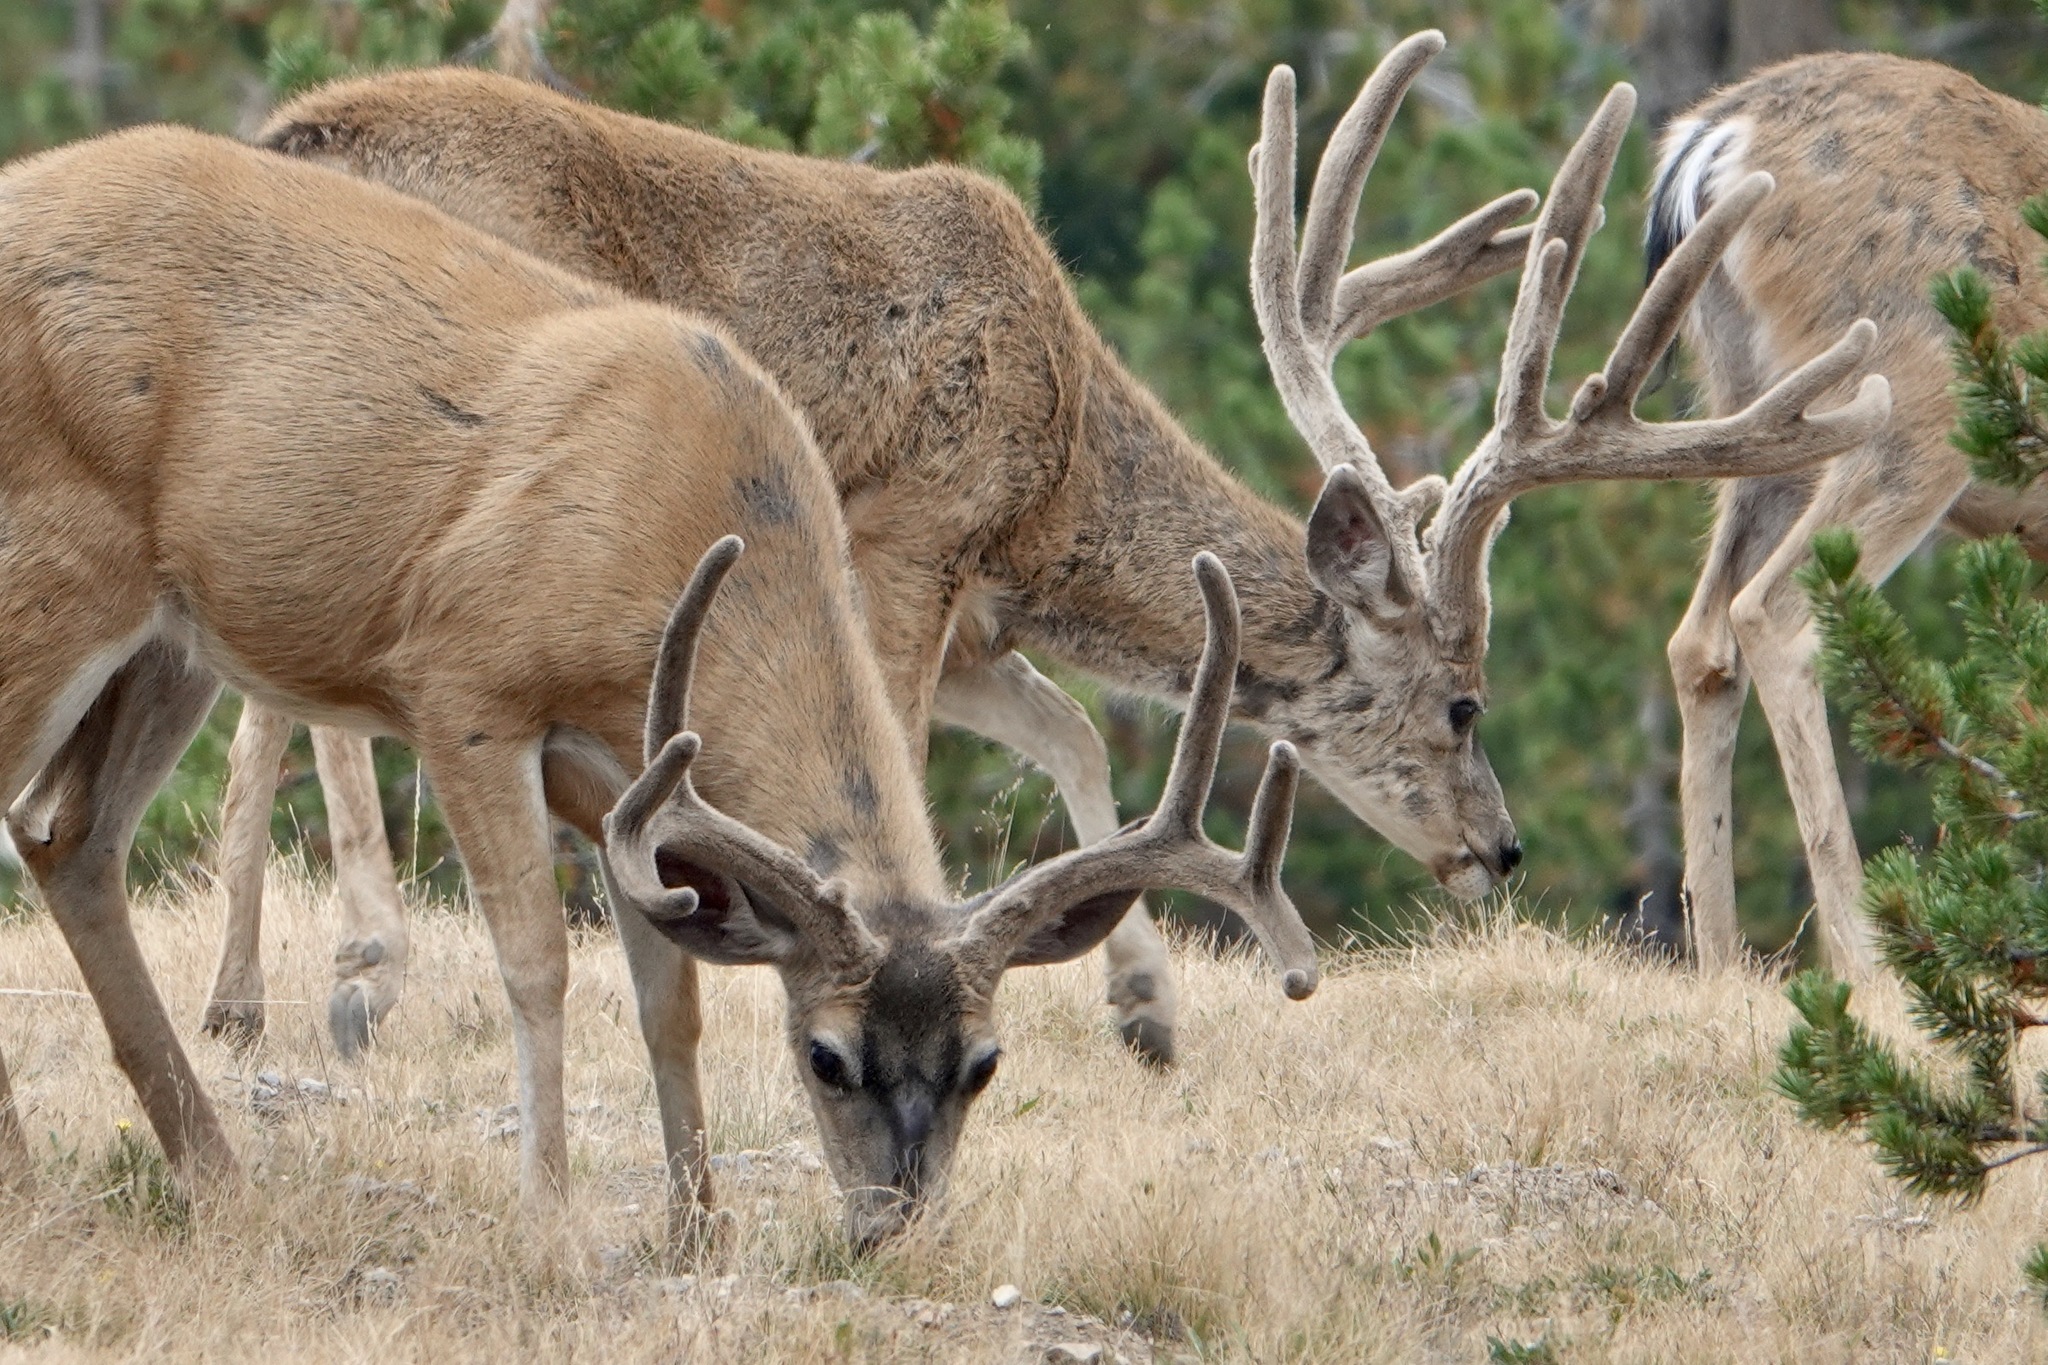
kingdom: Animalia
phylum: Chordata
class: Mammalia
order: Artiodactyla
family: Cervidae
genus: Odocoileus
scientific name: Odocoileus hemionus
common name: Mule deer
